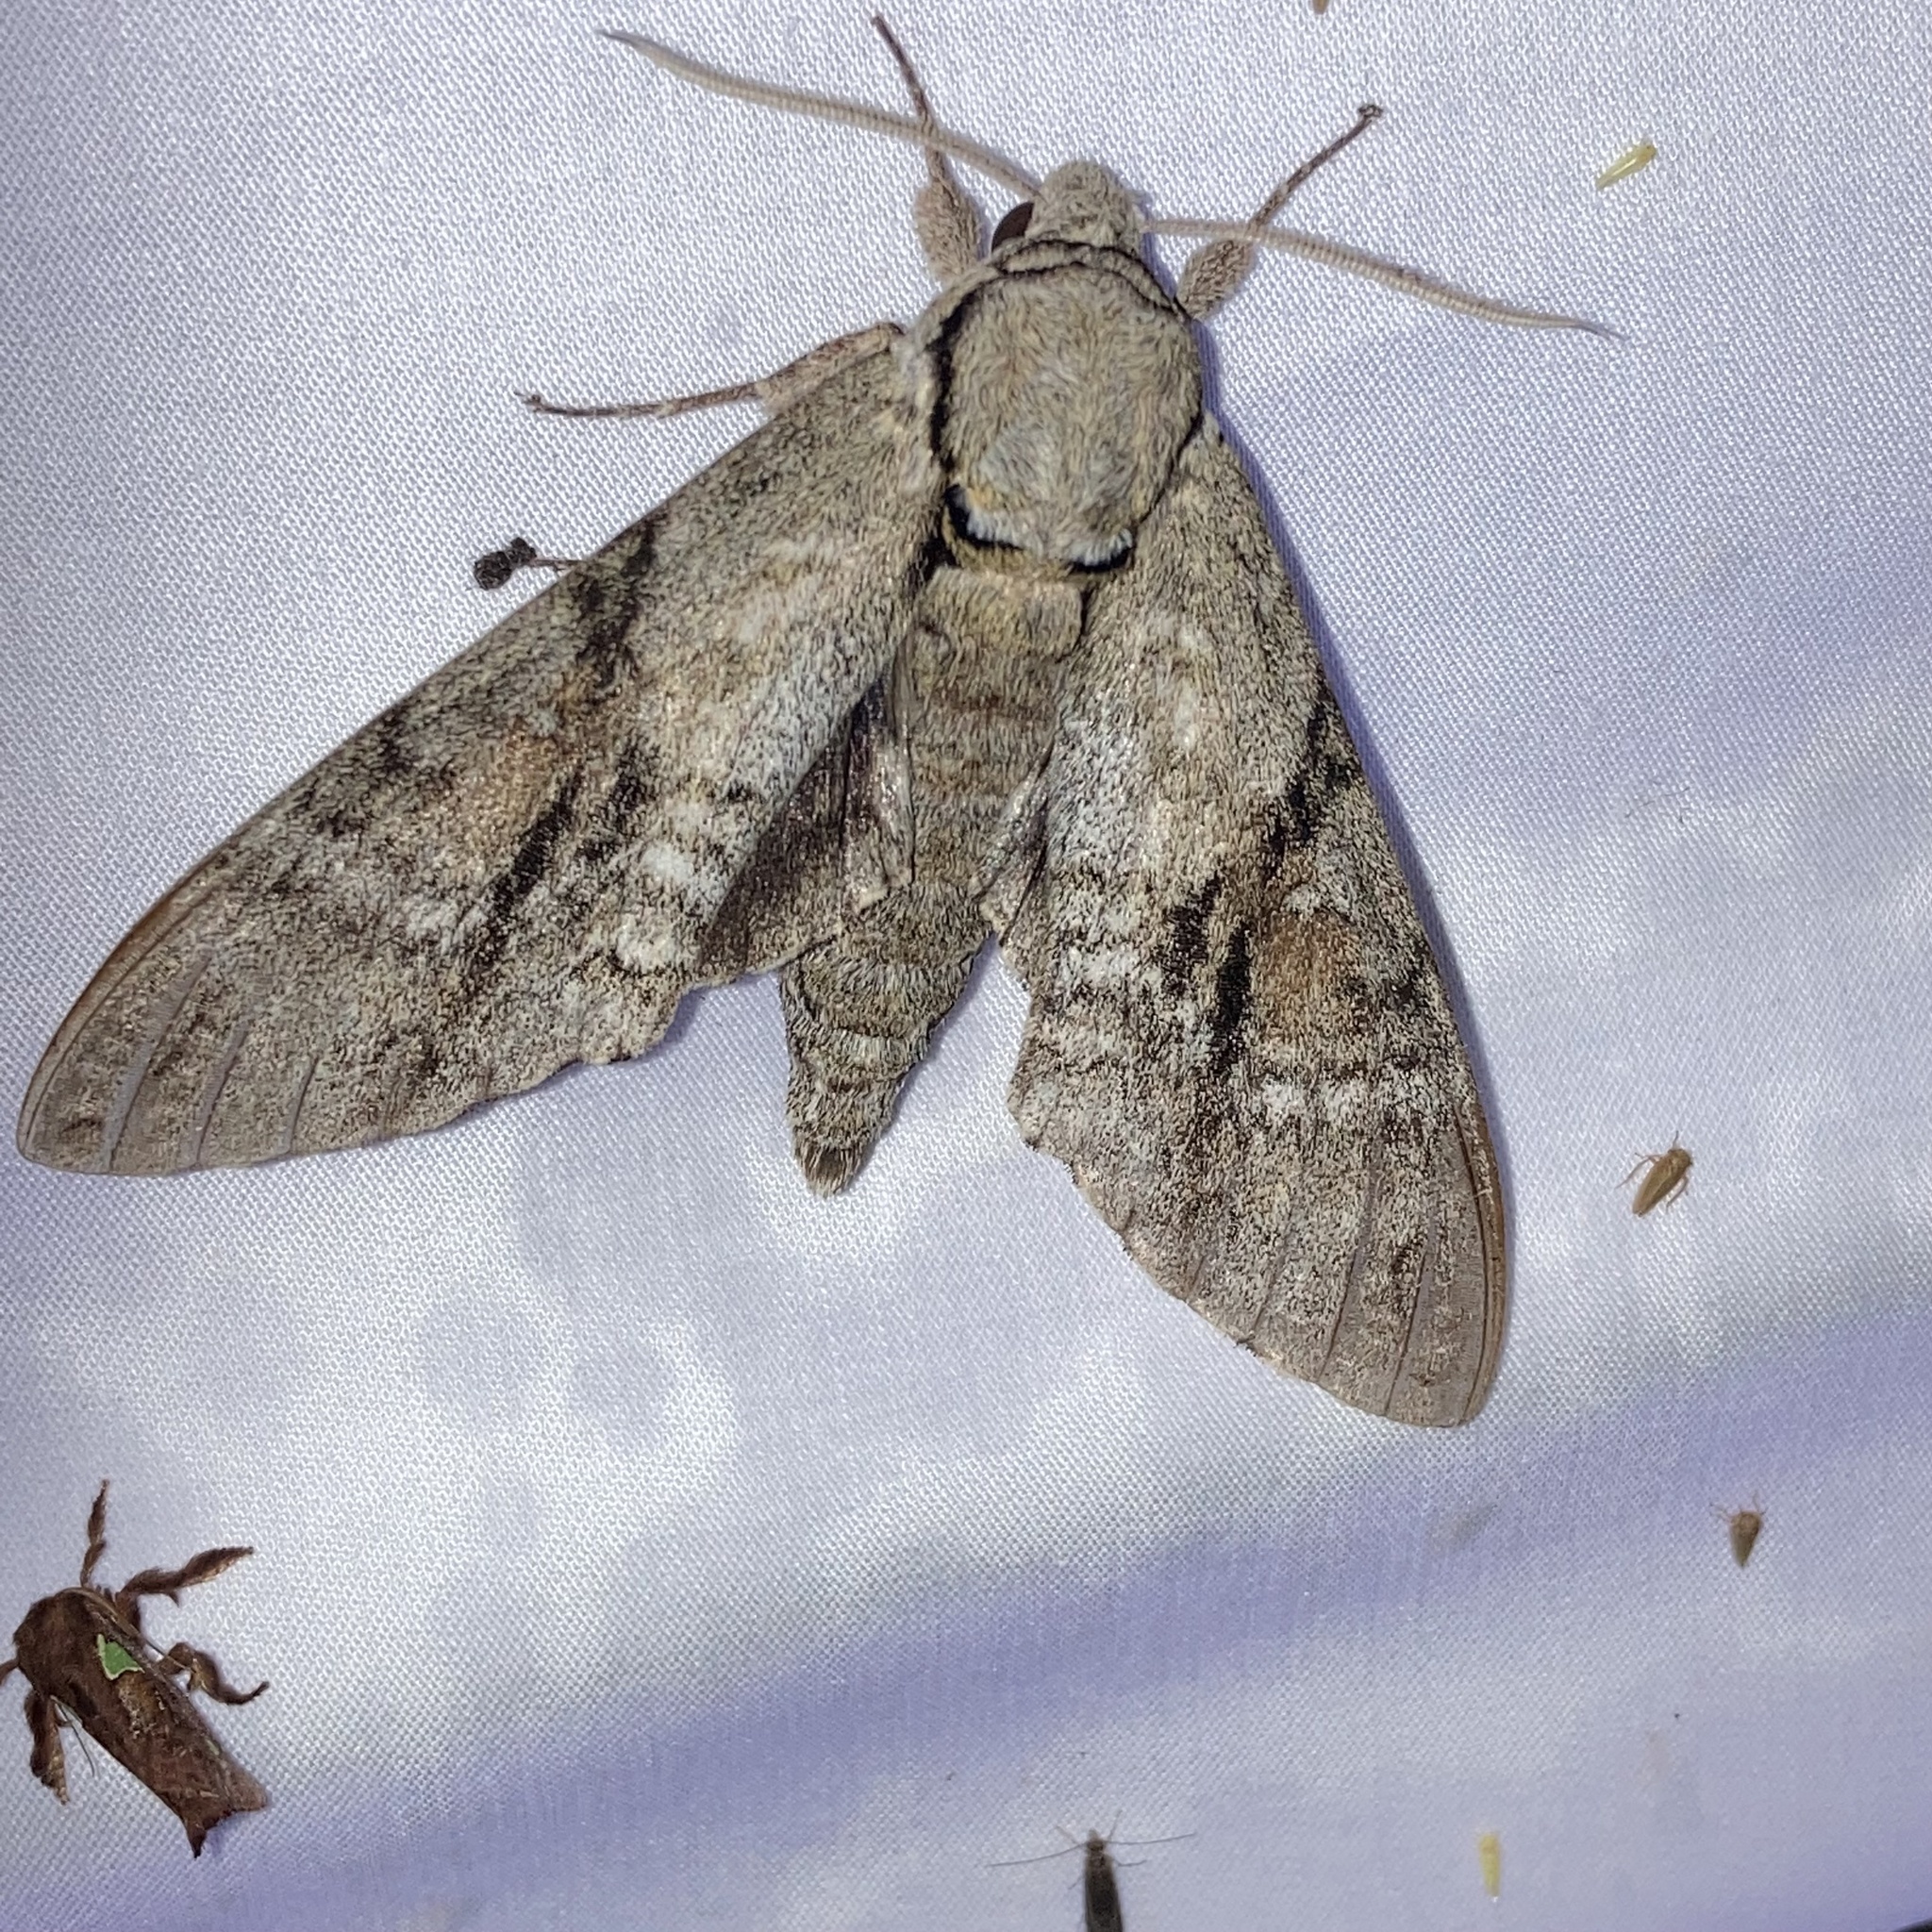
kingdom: Animalia
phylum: Arthropoda
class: Insecta
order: Lepidoptera
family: Sphingidae
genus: Manduca
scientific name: Manduca jasminearum
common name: Ash sphinx
